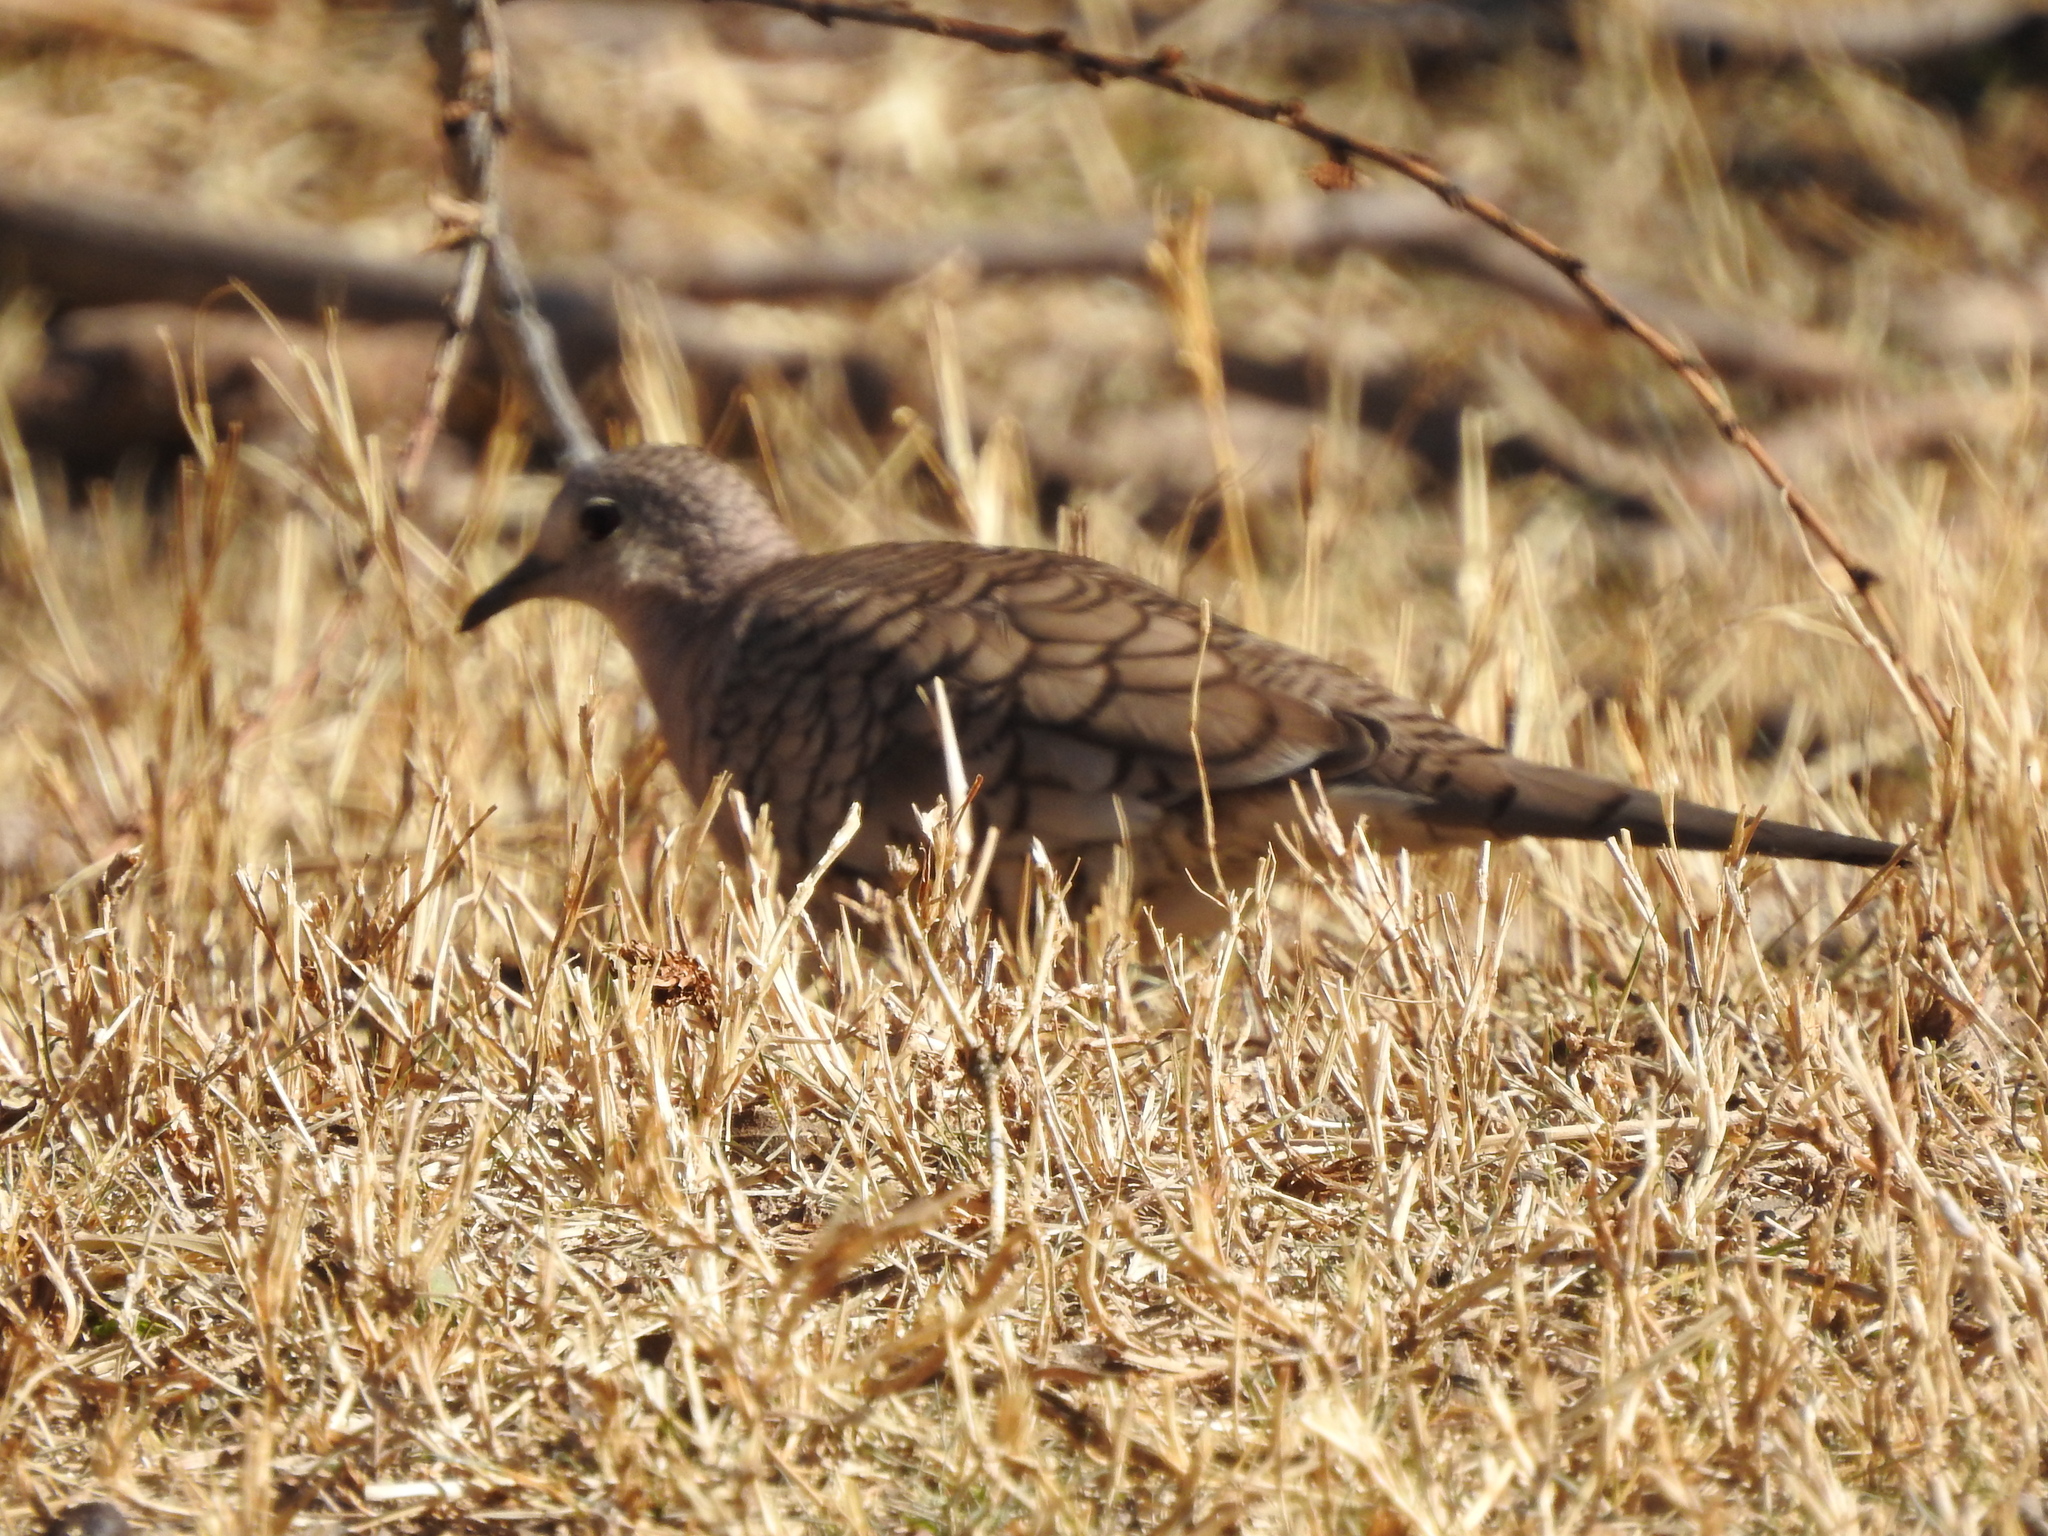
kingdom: Animalia
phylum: Chordata
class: Aves
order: Columbiformes
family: Columbidae
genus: Columbina
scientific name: Columbina inca
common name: Inca dove
